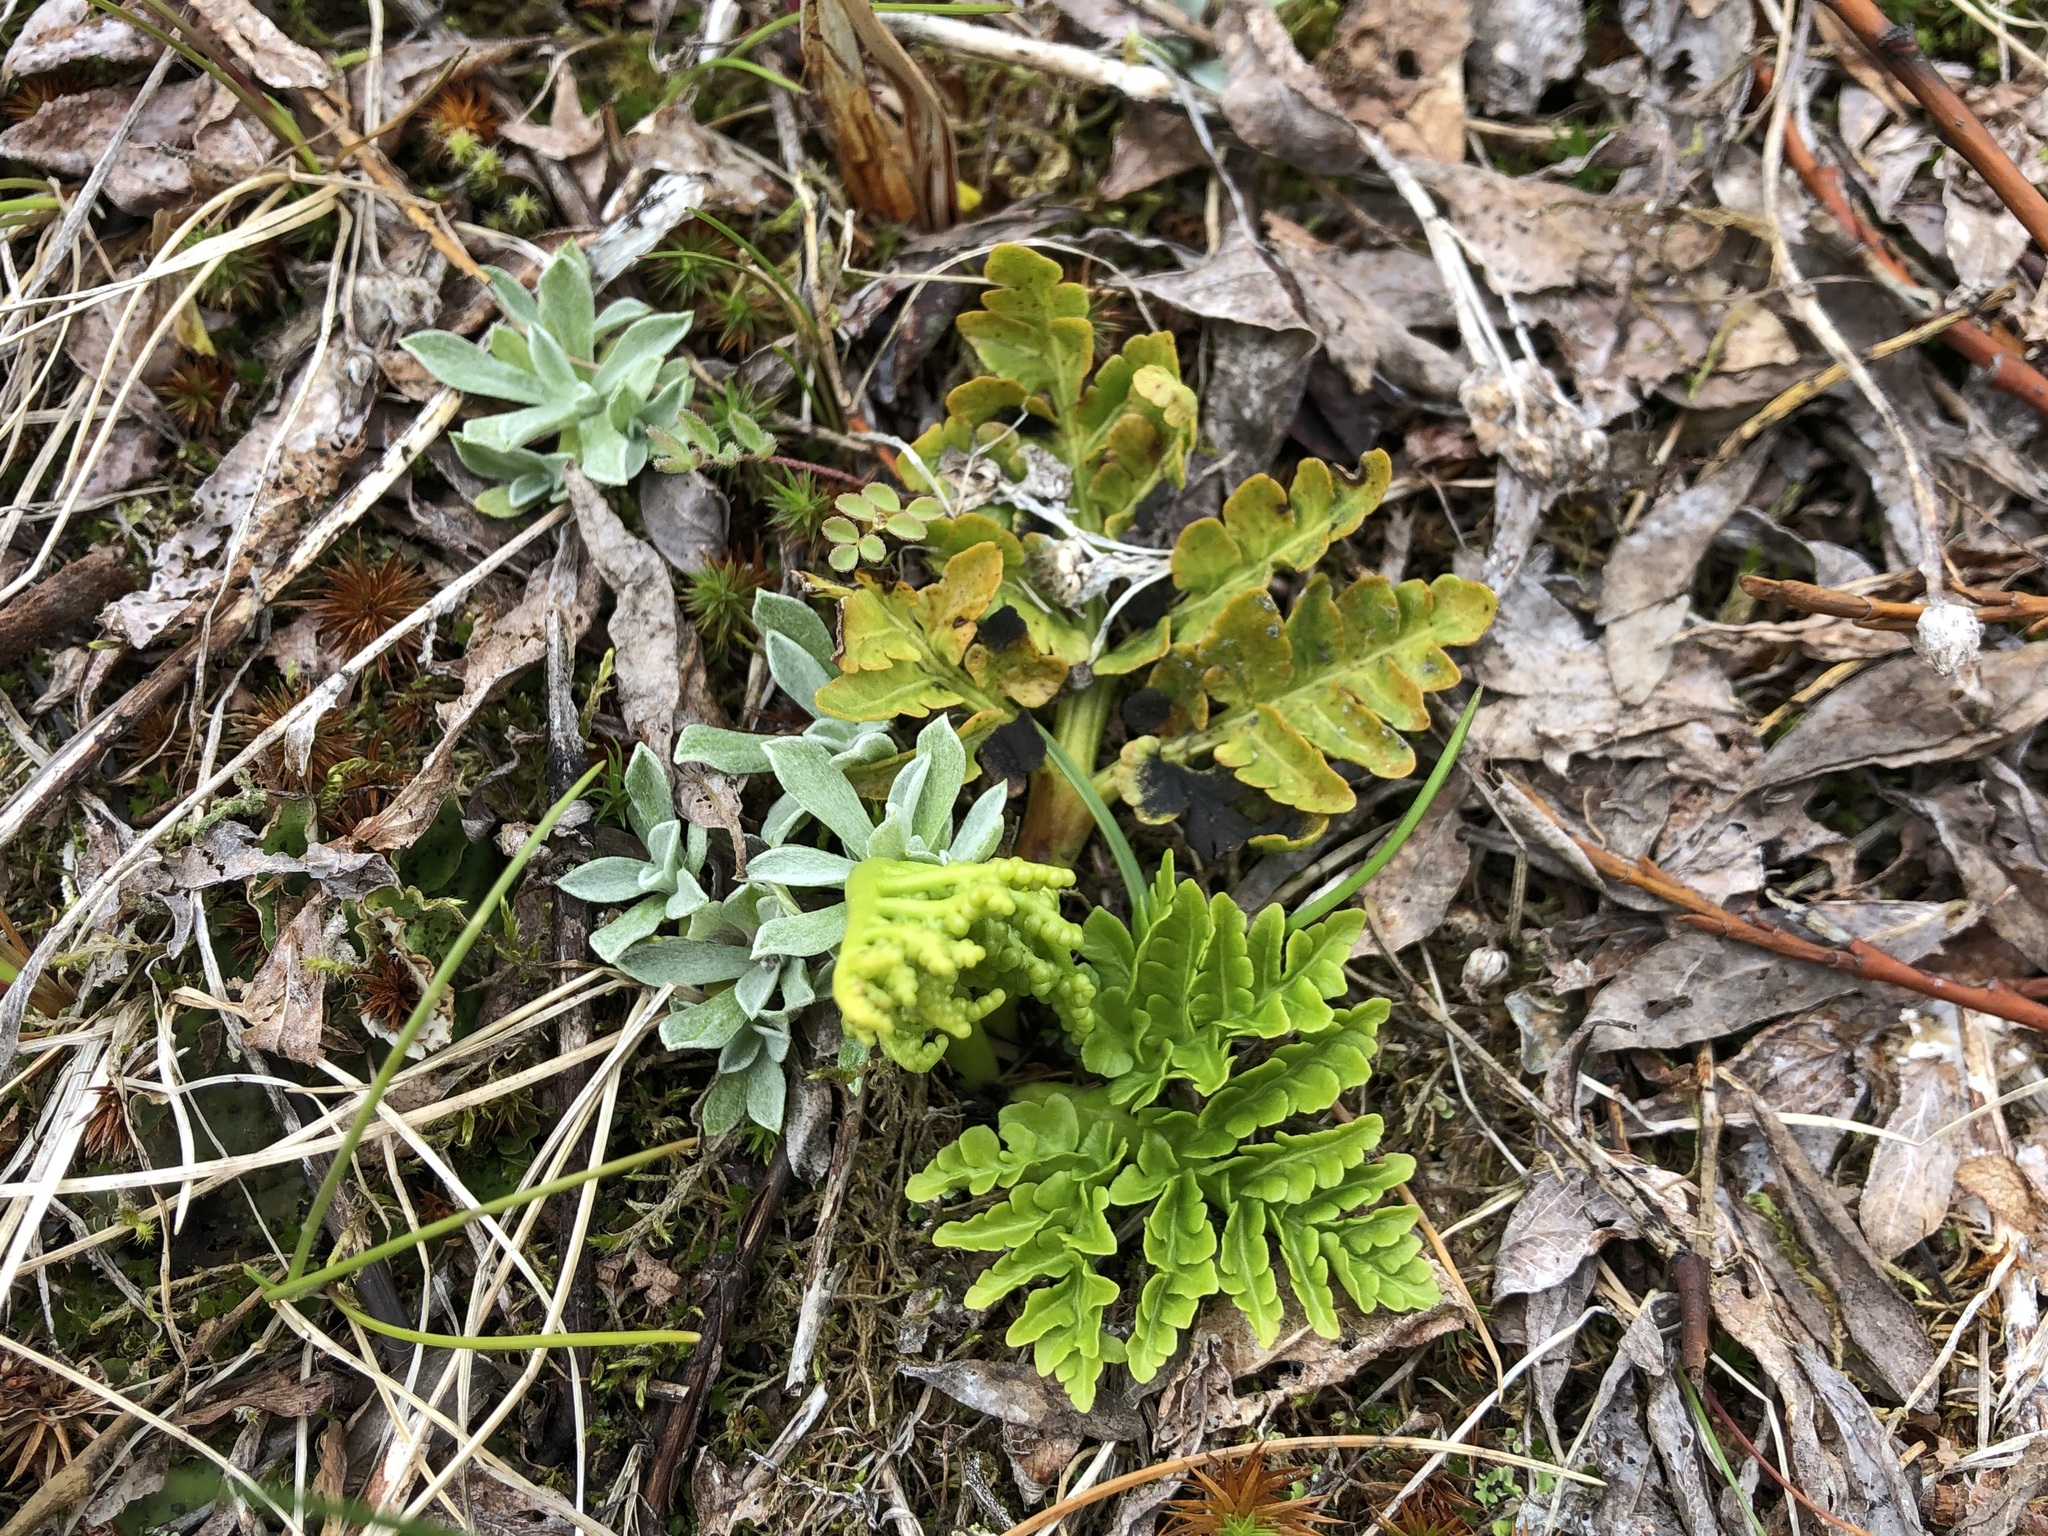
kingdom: Plantae
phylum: Tracheophyta
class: Polypodiopsida
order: Ophioglossales
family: Ophioglossaceae
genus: Sceptridium
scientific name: Sceptridium multifidum
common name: Leathery grape fern
